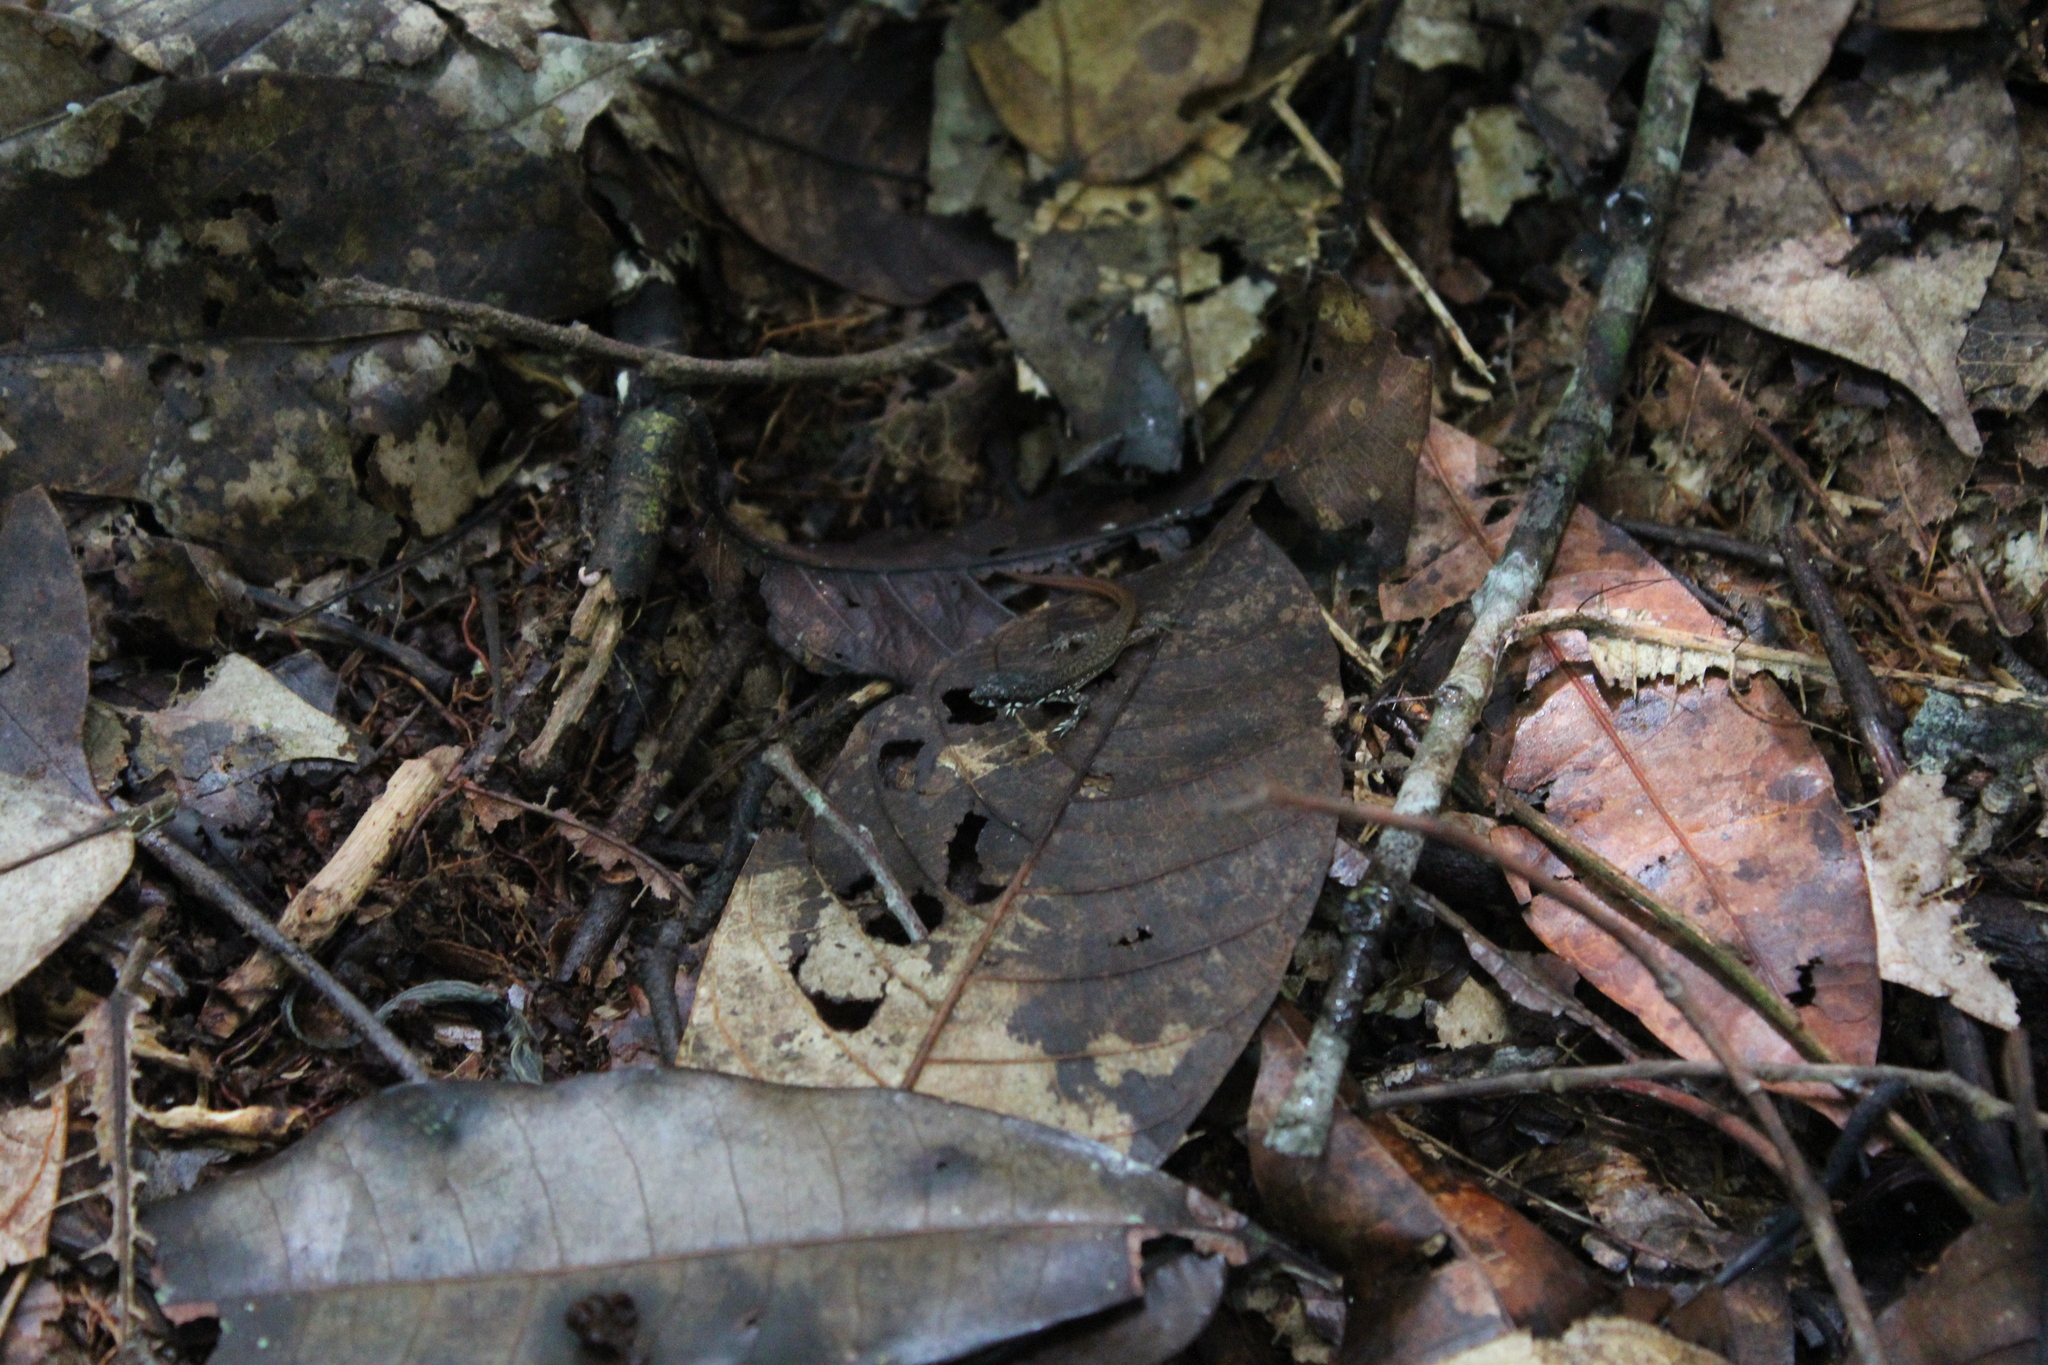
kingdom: Animalia
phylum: Chordata
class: Squamata
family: Gymnophthalmidae
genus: Cercosaura
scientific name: Cercosaura eigenmanni
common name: Eigenmann's cercosaura
